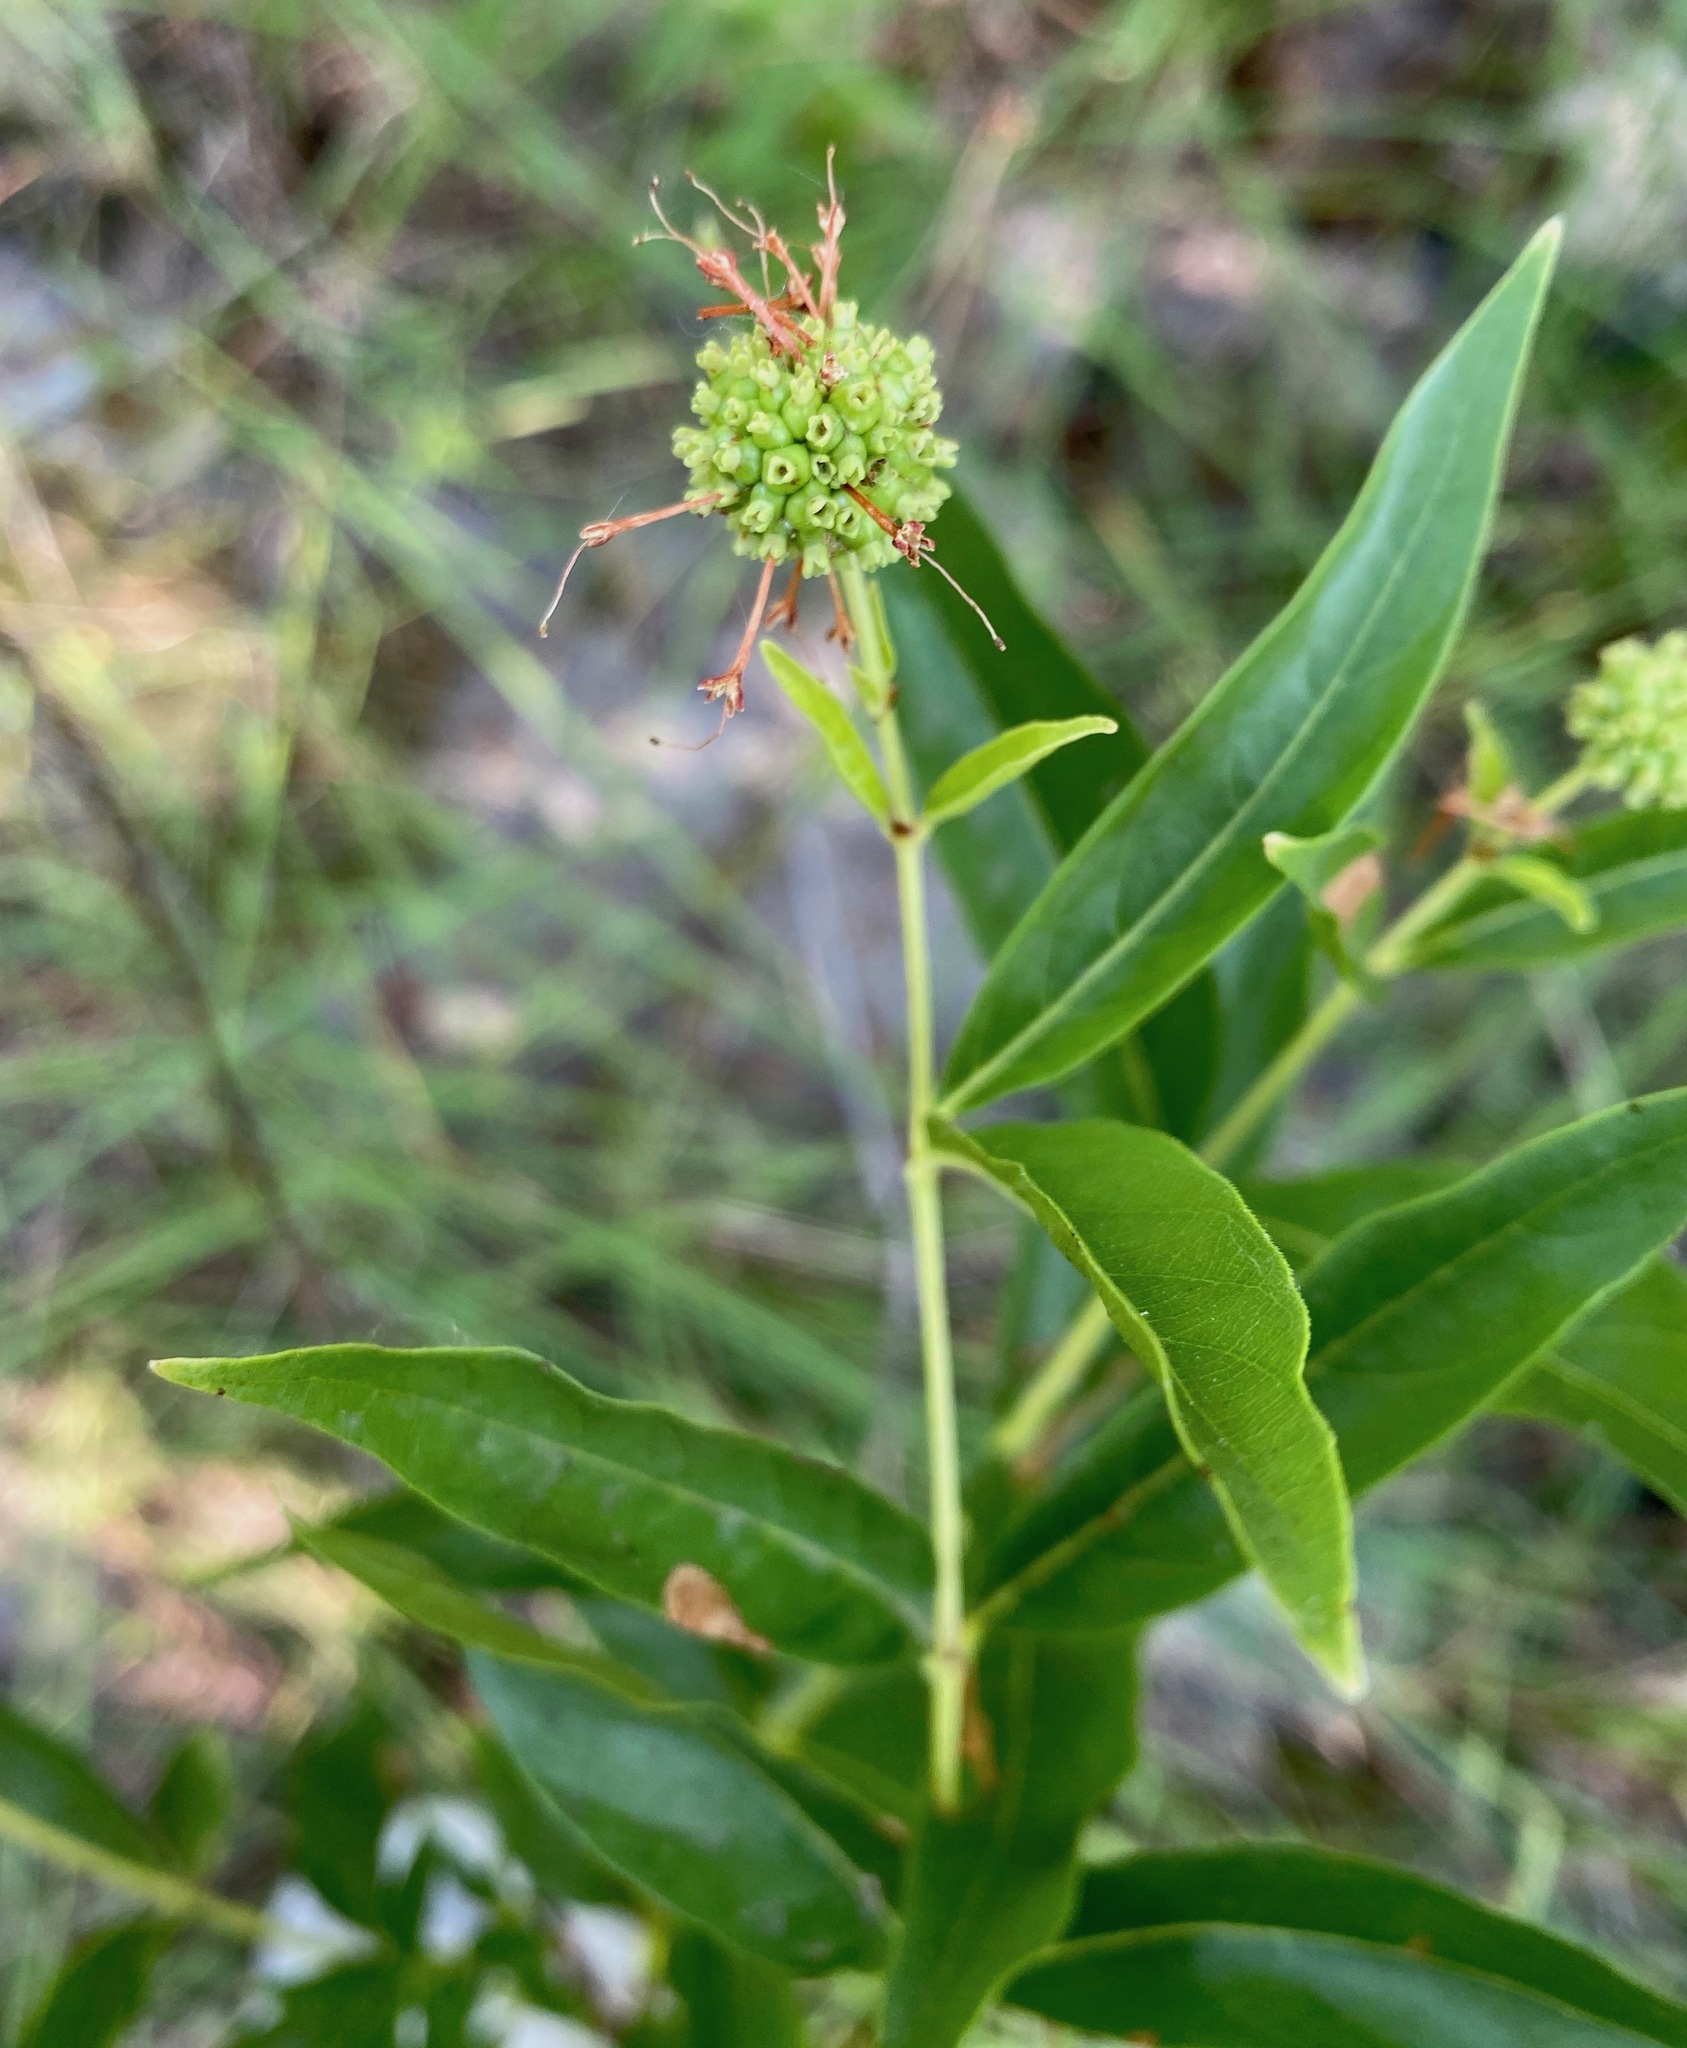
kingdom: Plantae
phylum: Tracheophyta
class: Magnoliopsida
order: Gentianales
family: Rubiaceae
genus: Cephalanthus
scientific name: Cephalanthus occidentalis
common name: Button-willow
